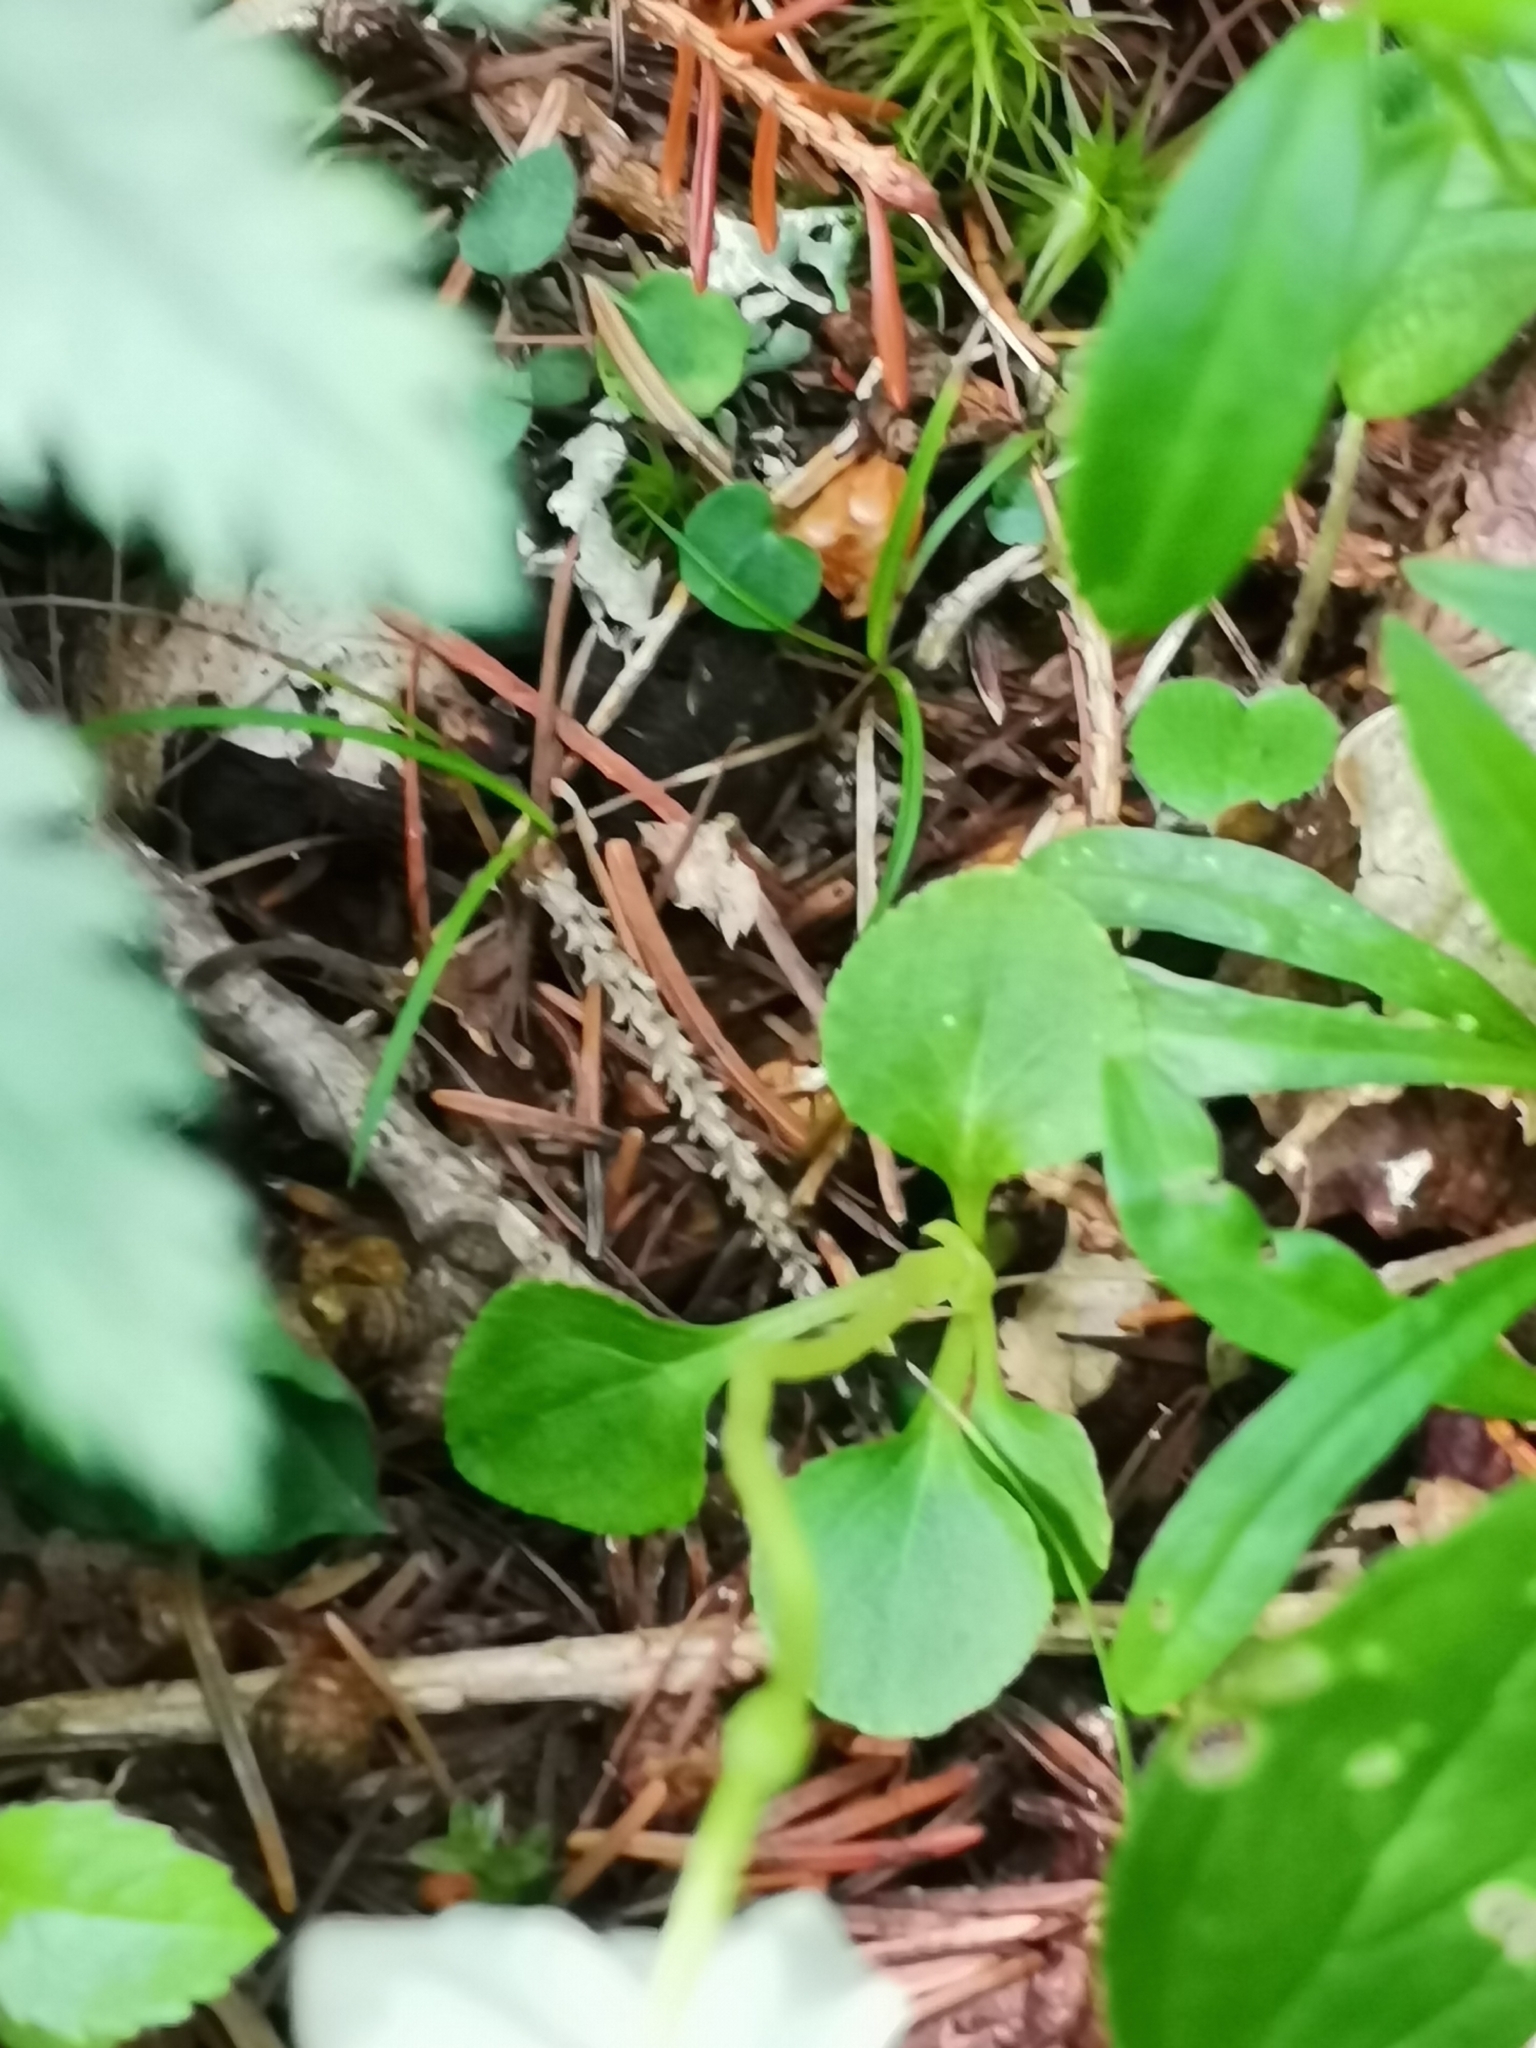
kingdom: Plantae
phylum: Tracheophyta
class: Magnoliopsida
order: Ericales
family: Ericaceae
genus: Moneses
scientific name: Moneses uniflora
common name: One-flowered wintergreen
